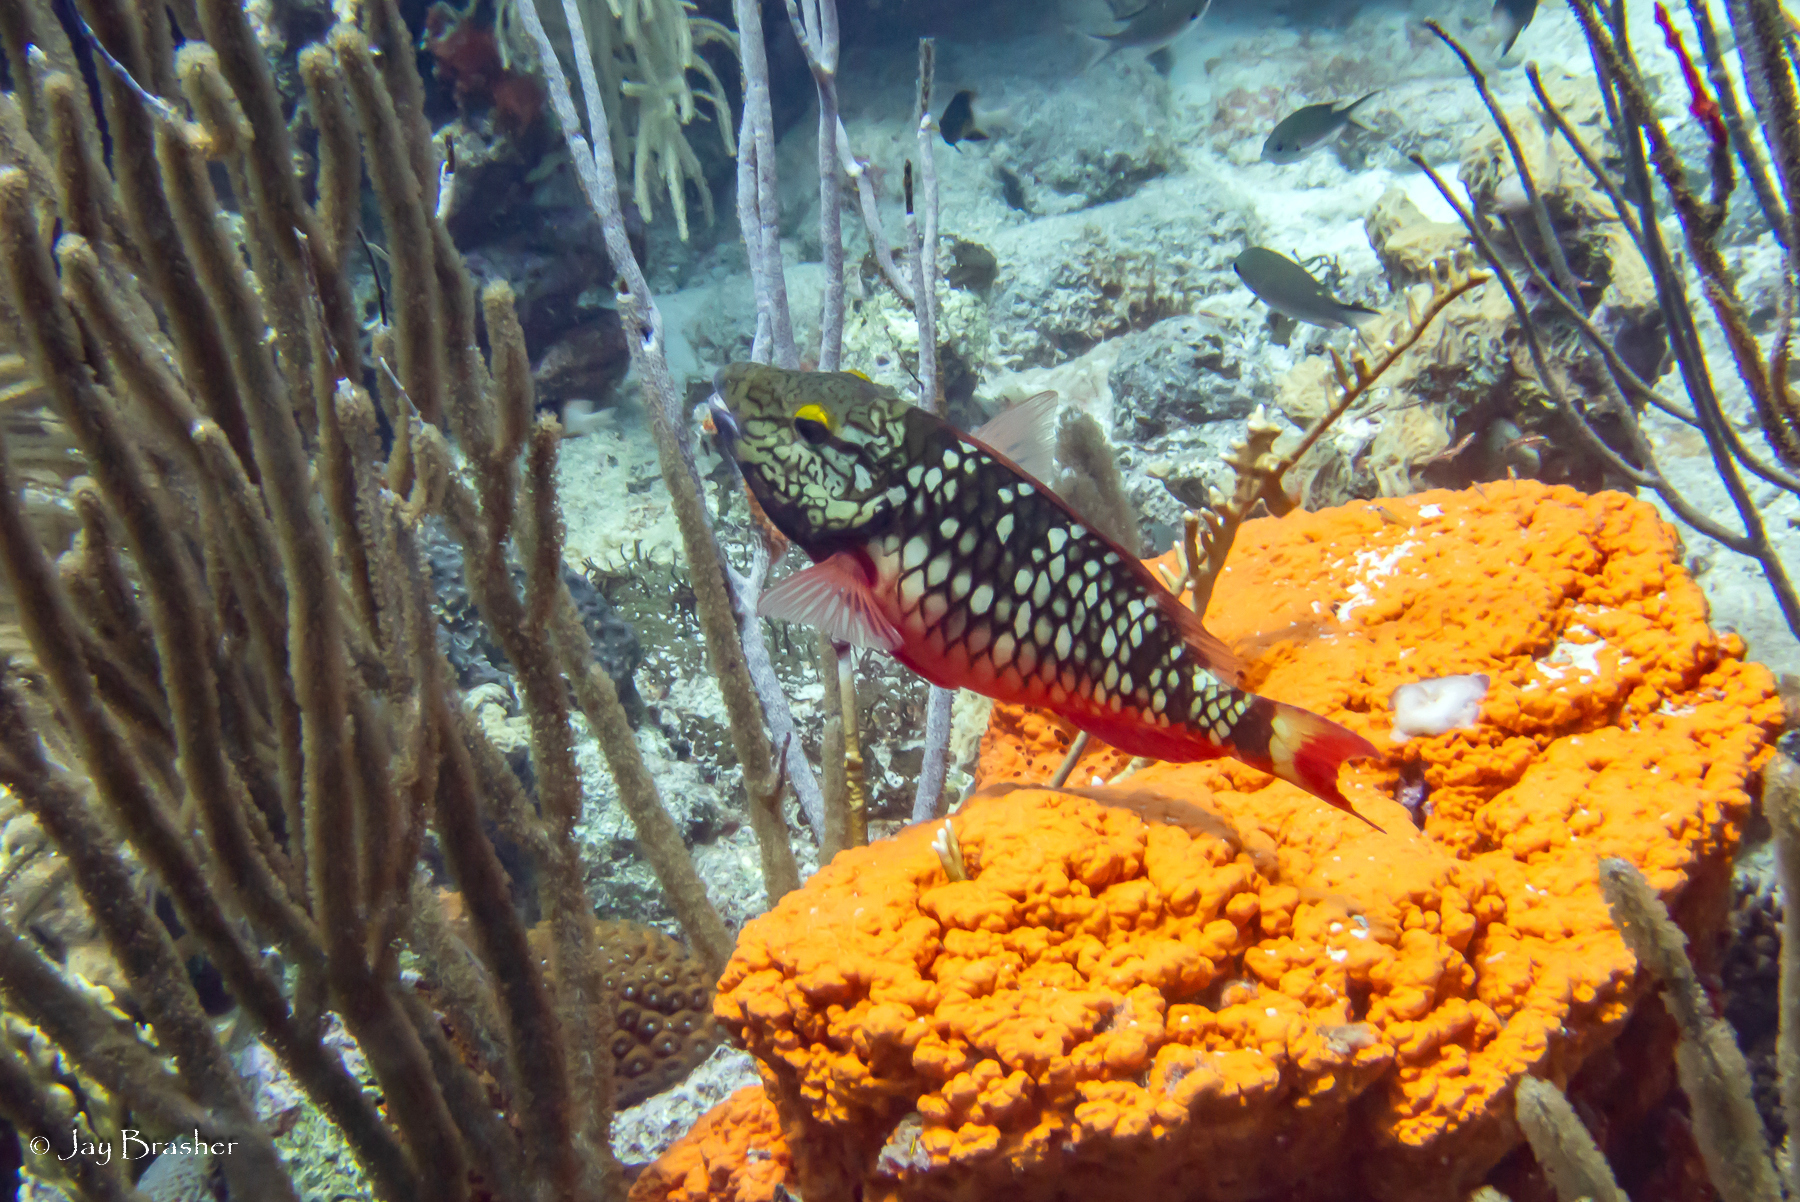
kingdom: Animalia
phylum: Chordata
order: Perciformes
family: Scaridae
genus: Sparisoma
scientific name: Sparisoma viride
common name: Stoplight parrotfish
